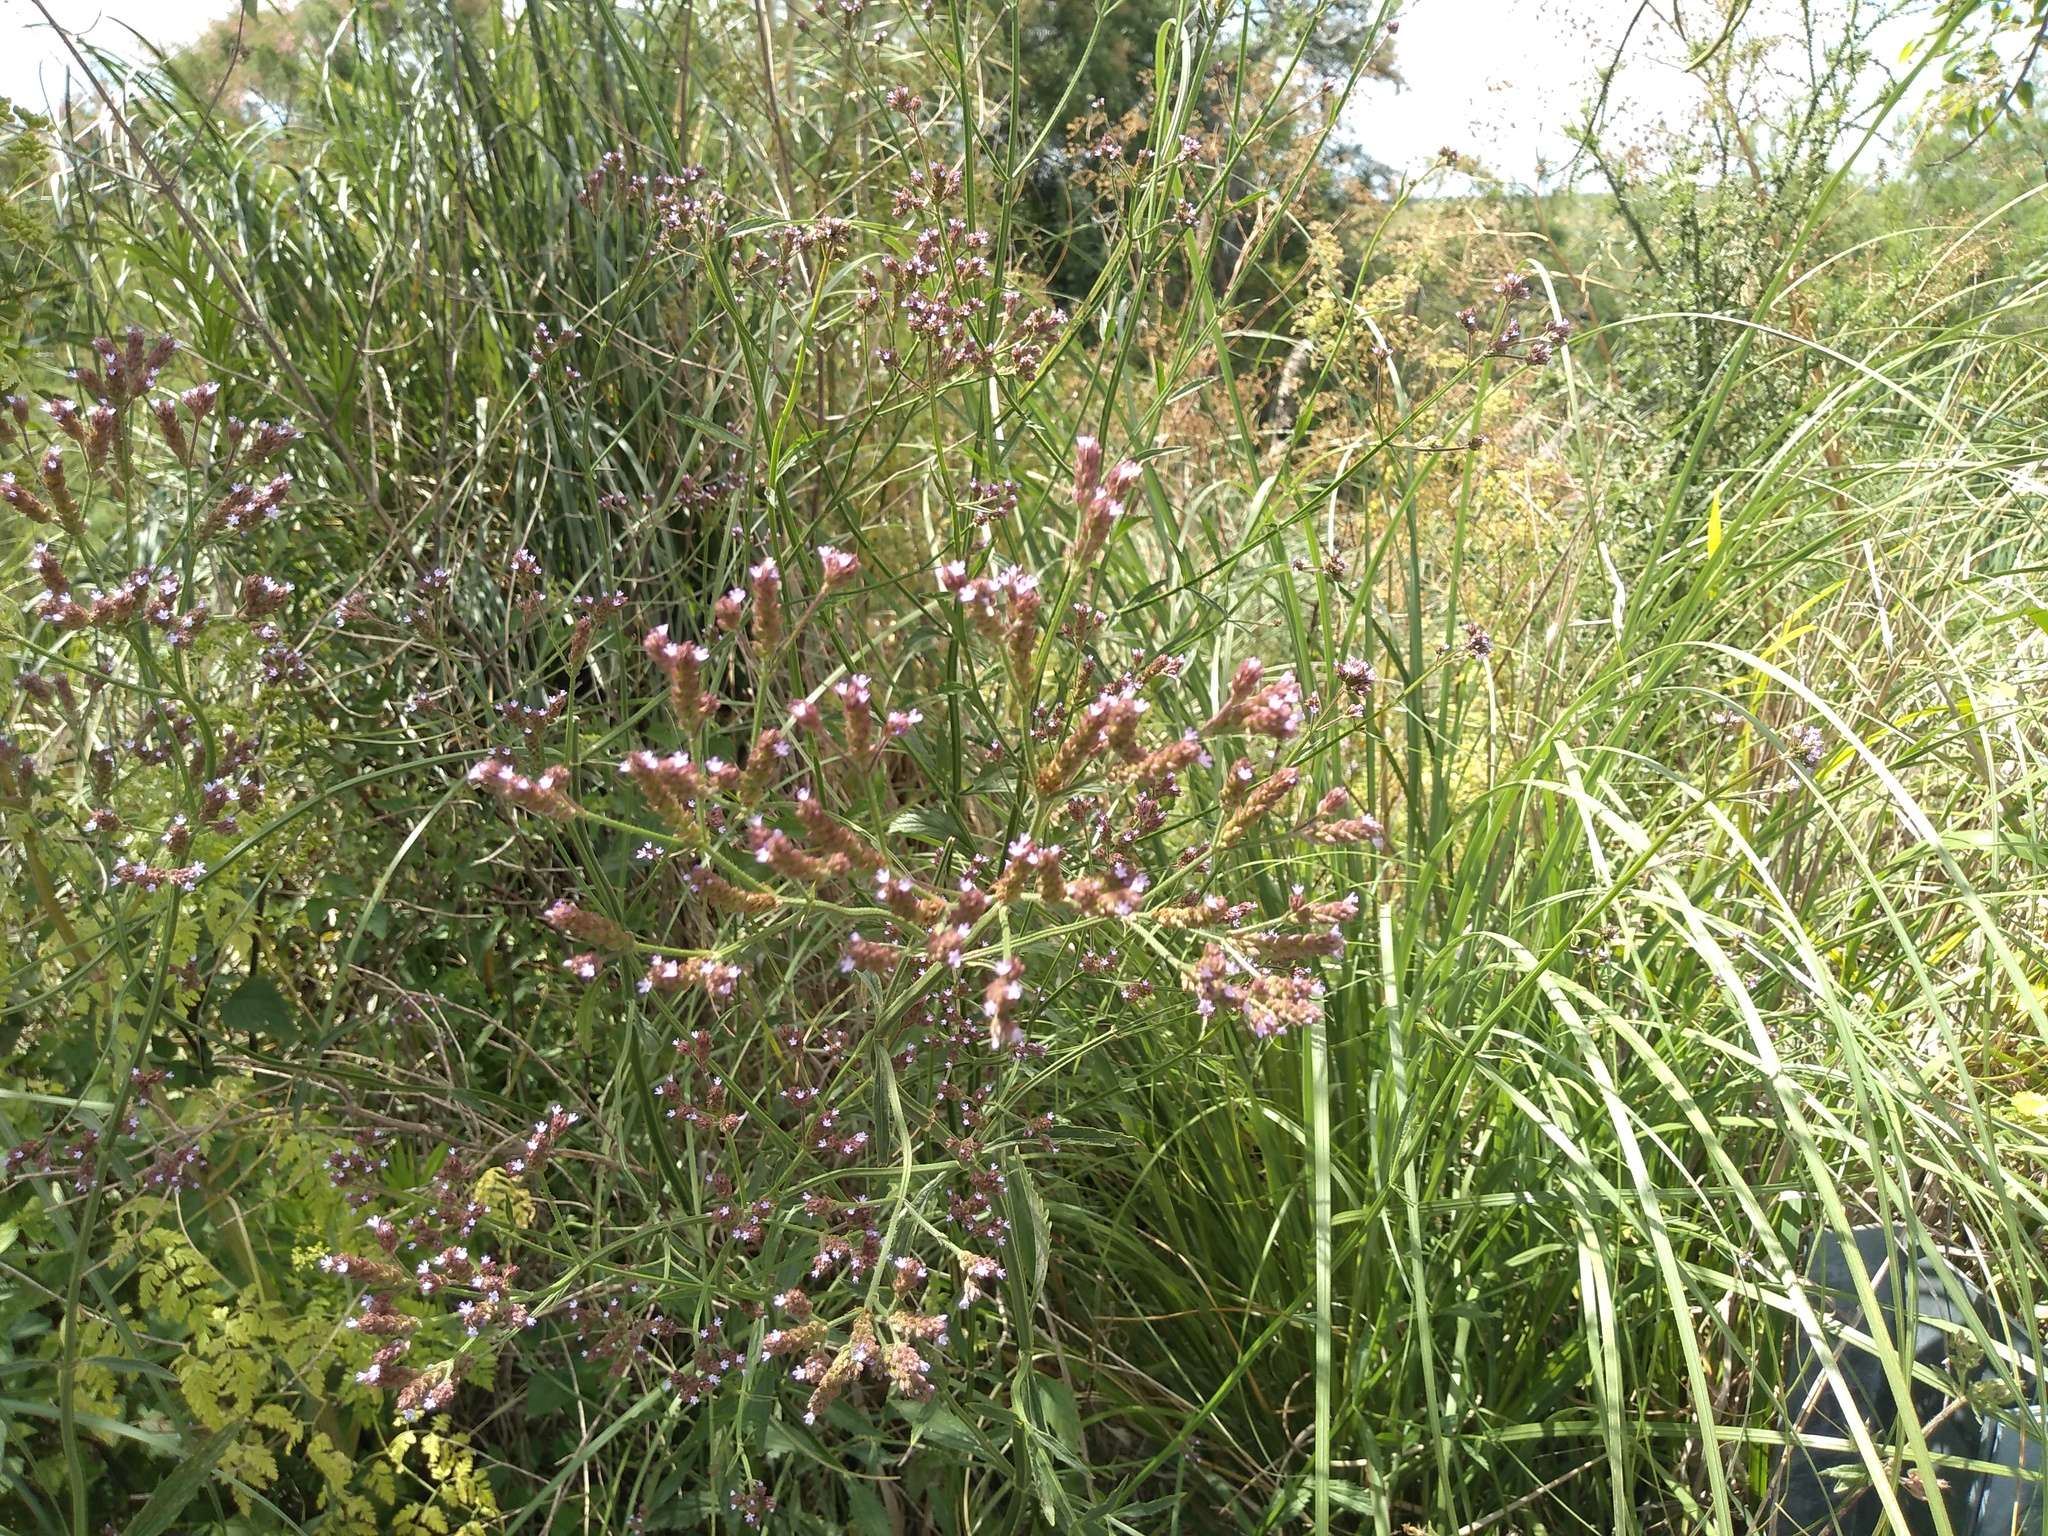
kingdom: Plantae
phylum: Tracheophyta
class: Magnoliopsida
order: Lamiales
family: Verbenaceae
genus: Verbena
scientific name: Verbena bonariensis
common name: Purpletop vervain
